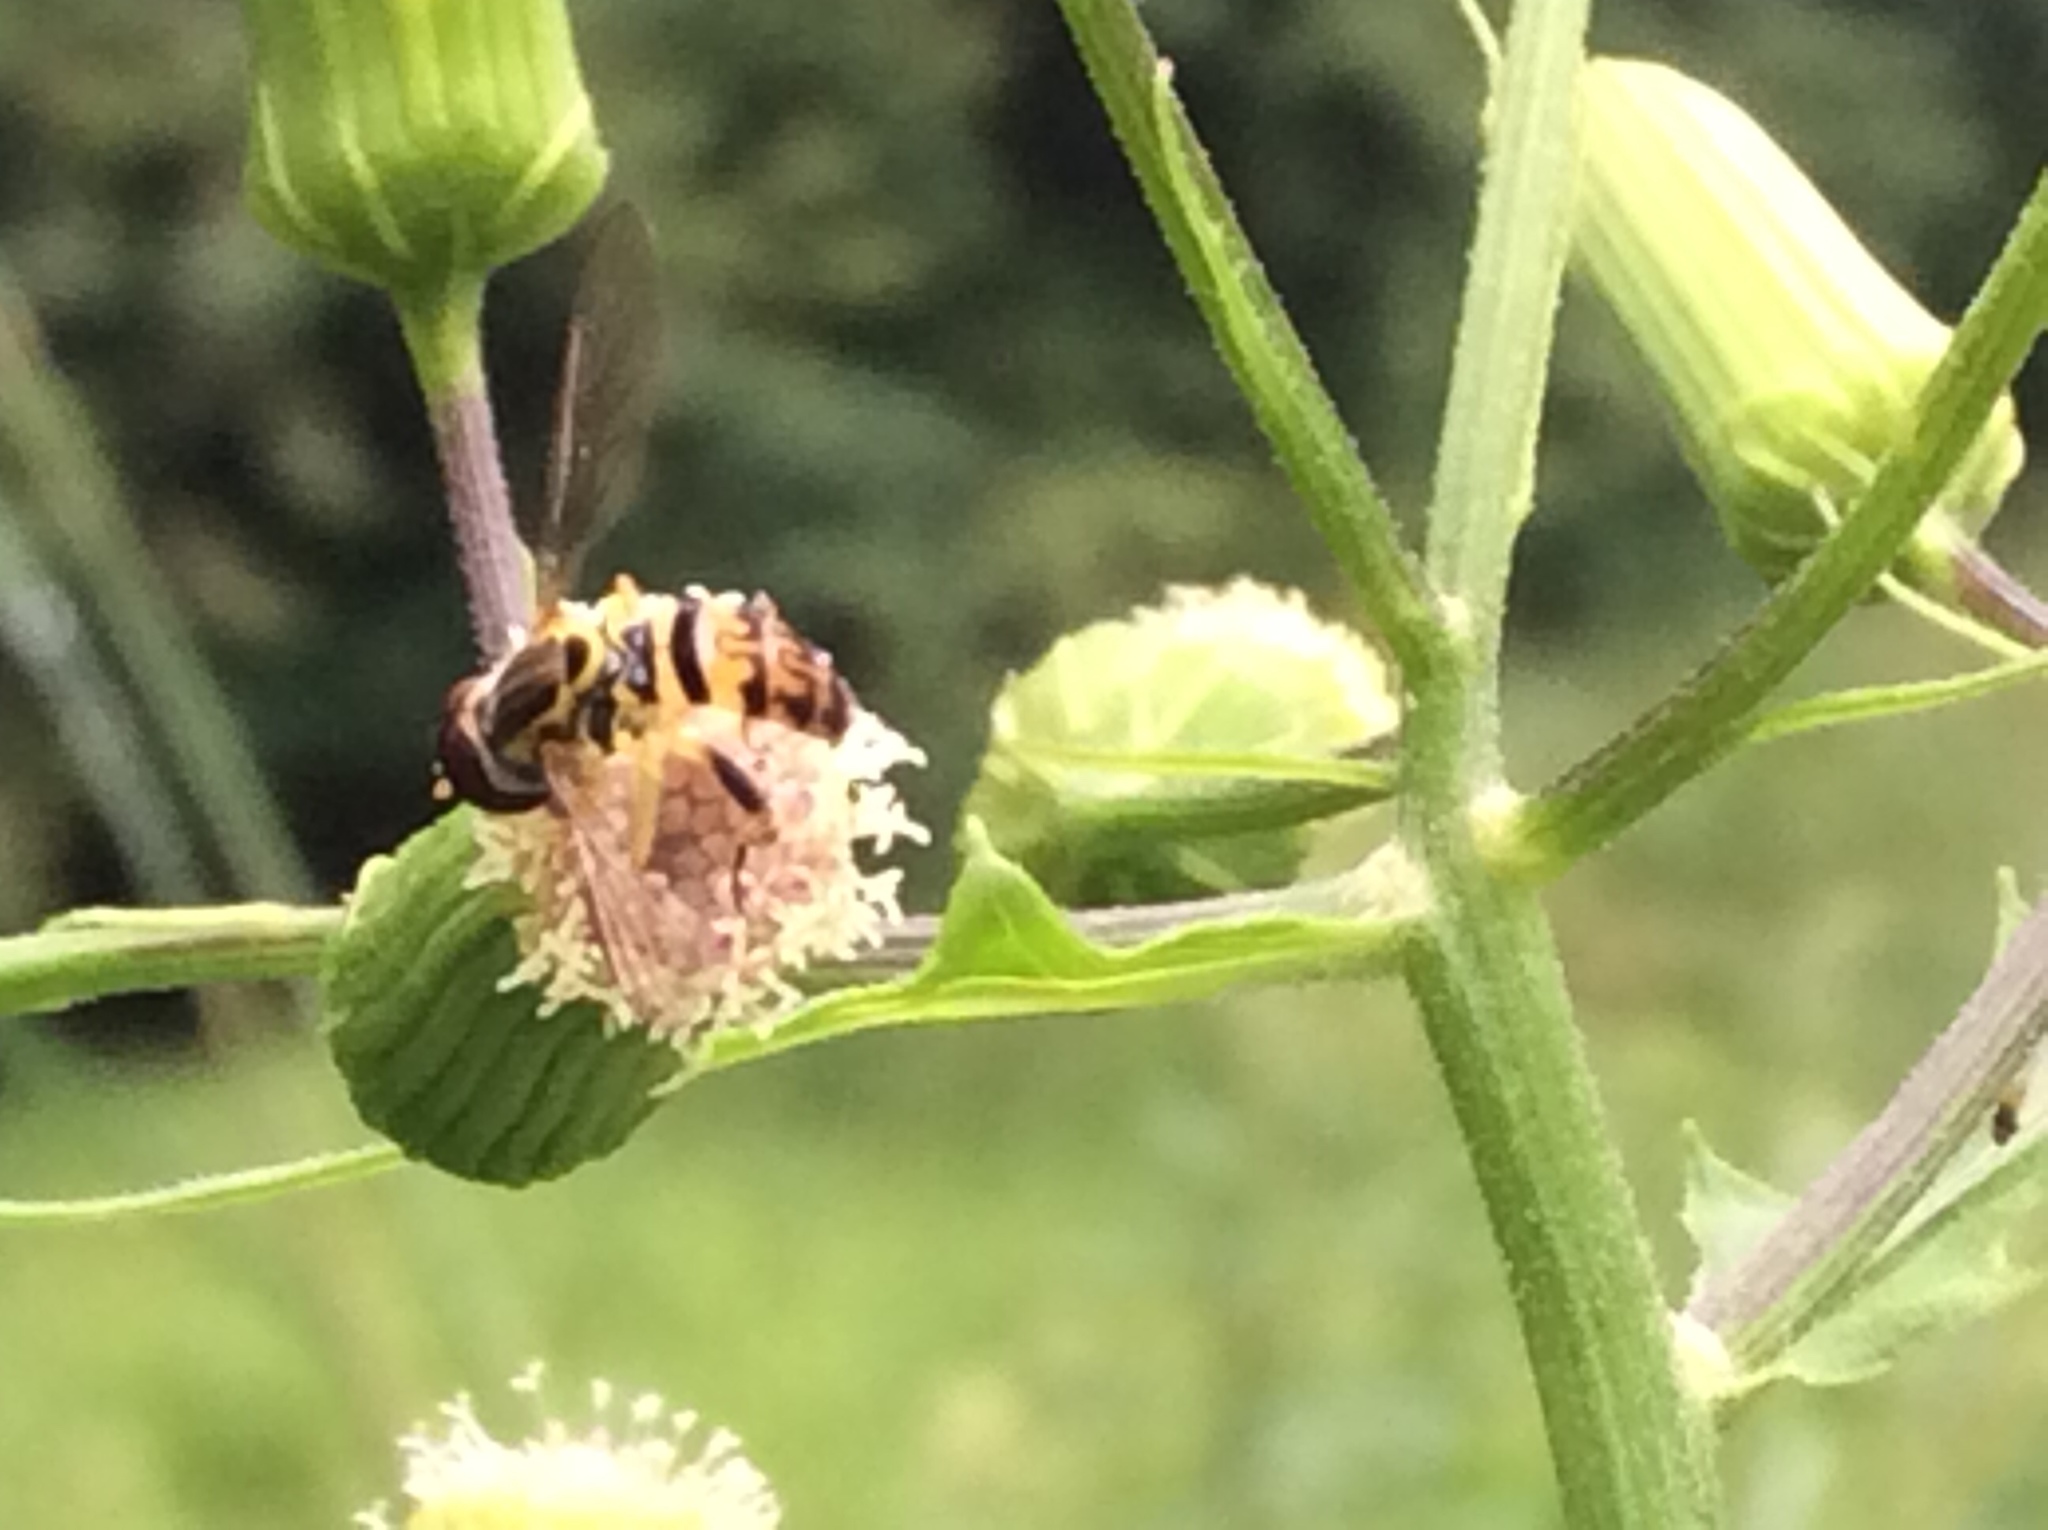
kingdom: Animalia
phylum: Arthropoda
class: Insecta
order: Diptera
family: Syrphidae
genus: Toxomerus
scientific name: Toxomerus geminatus
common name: Eastern calligrapher
